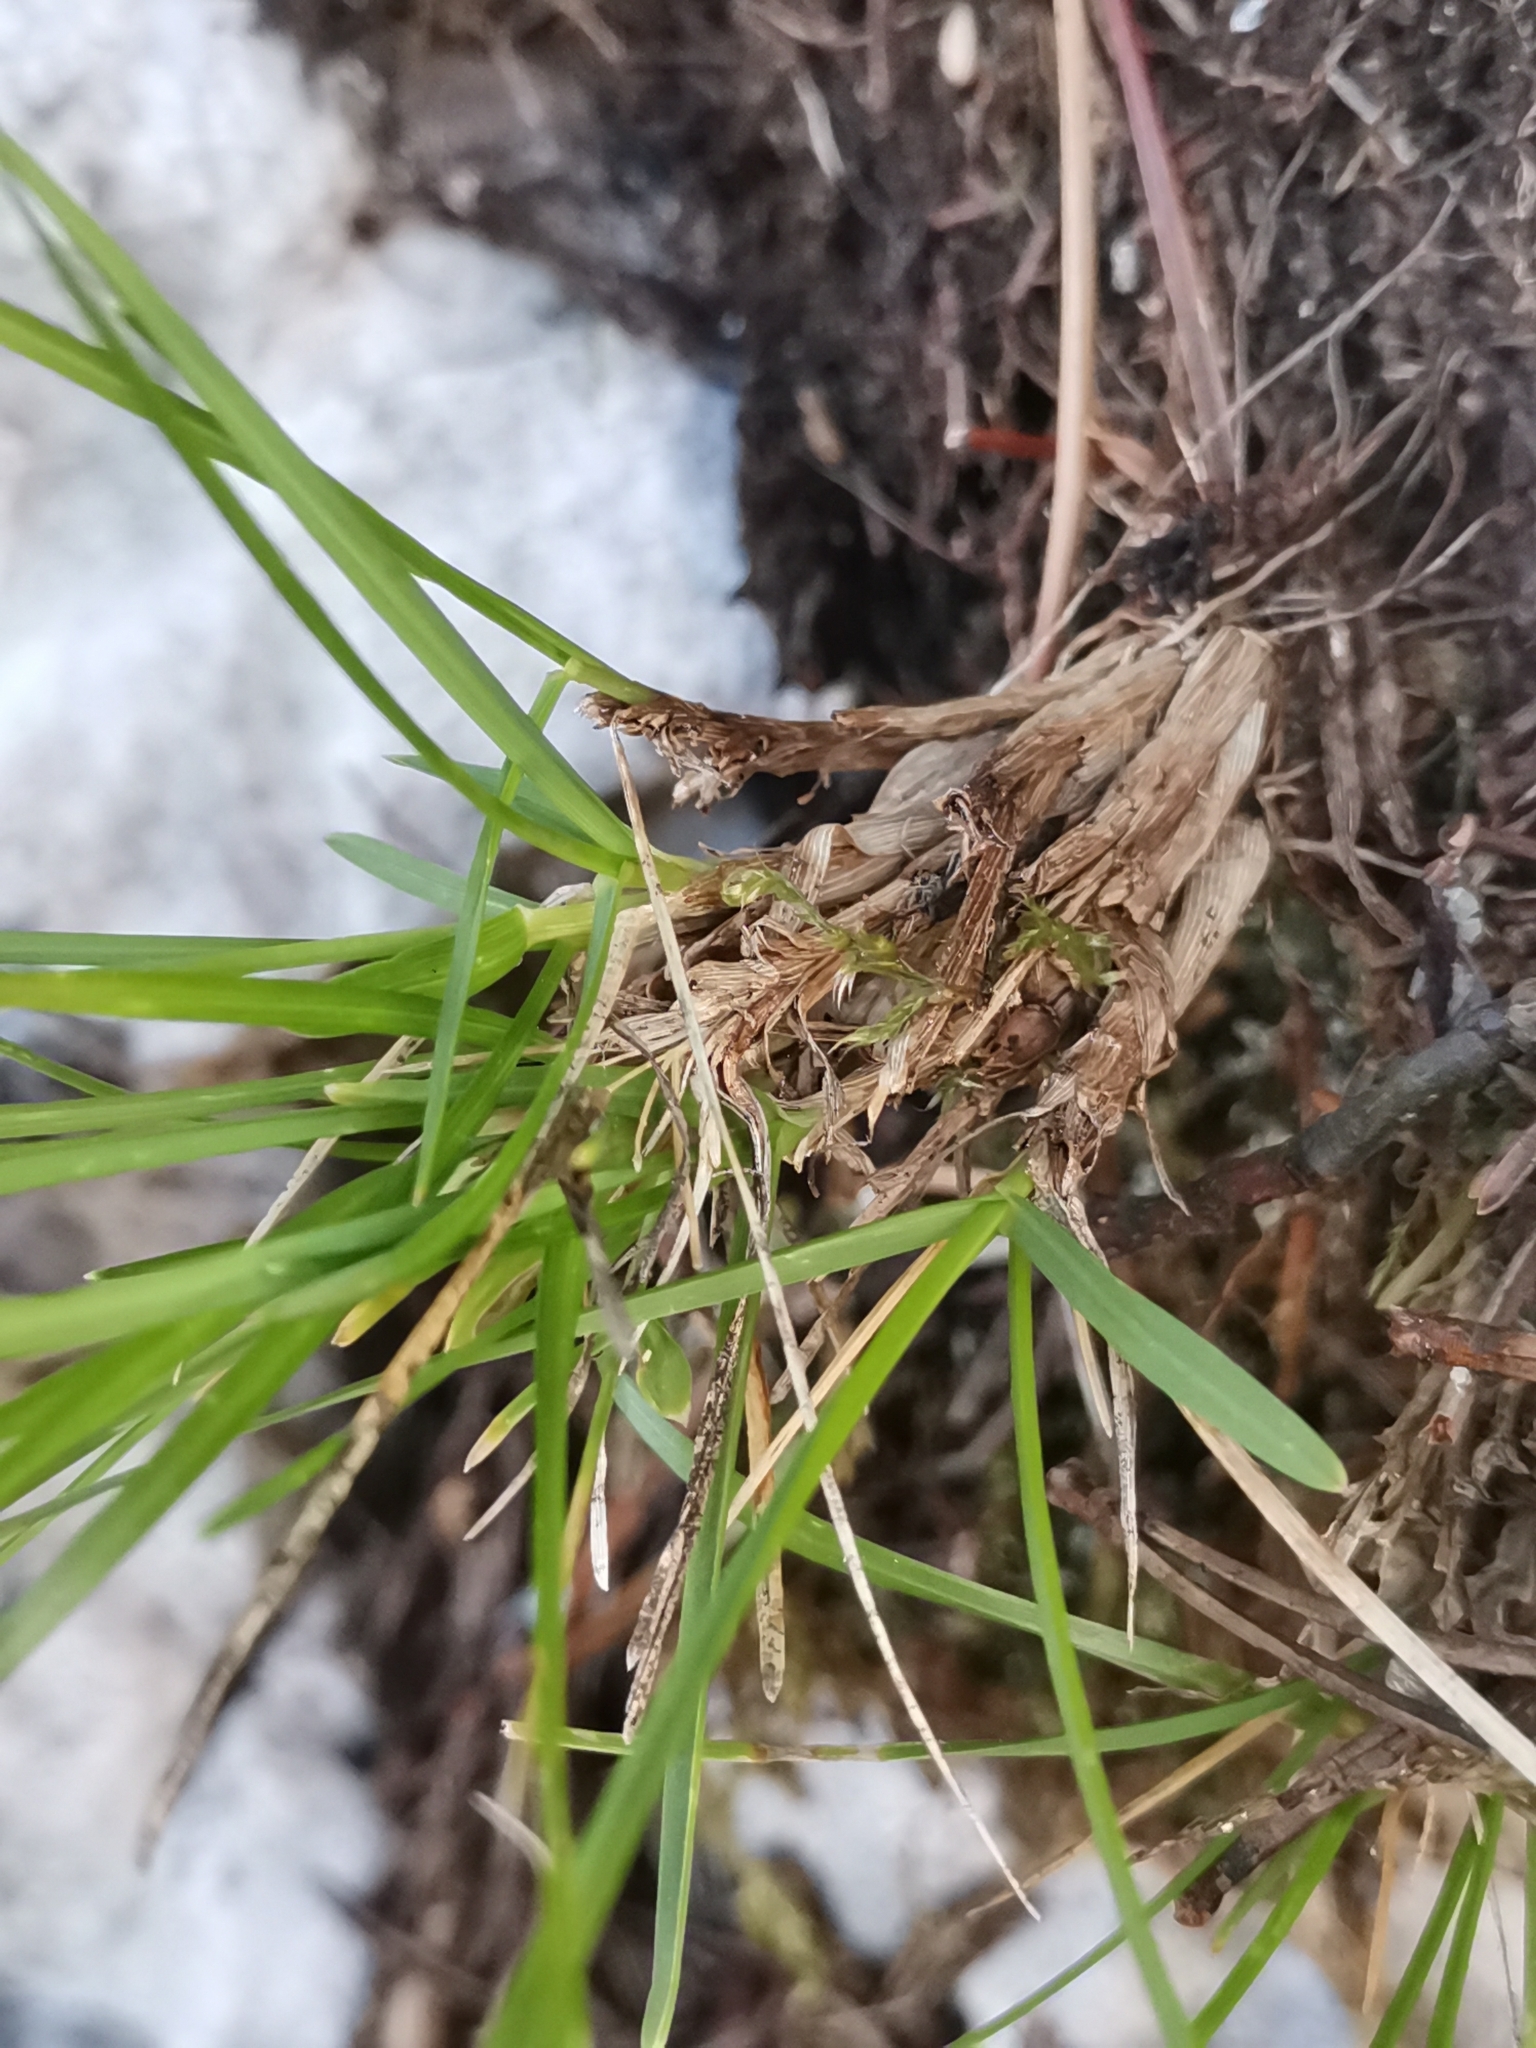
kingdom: Plantae
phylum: Tracheophyta
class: Liliopsida
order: Poales
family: Poaceae
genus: Sesleriella
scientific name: Sesleriella sphaerocephala
